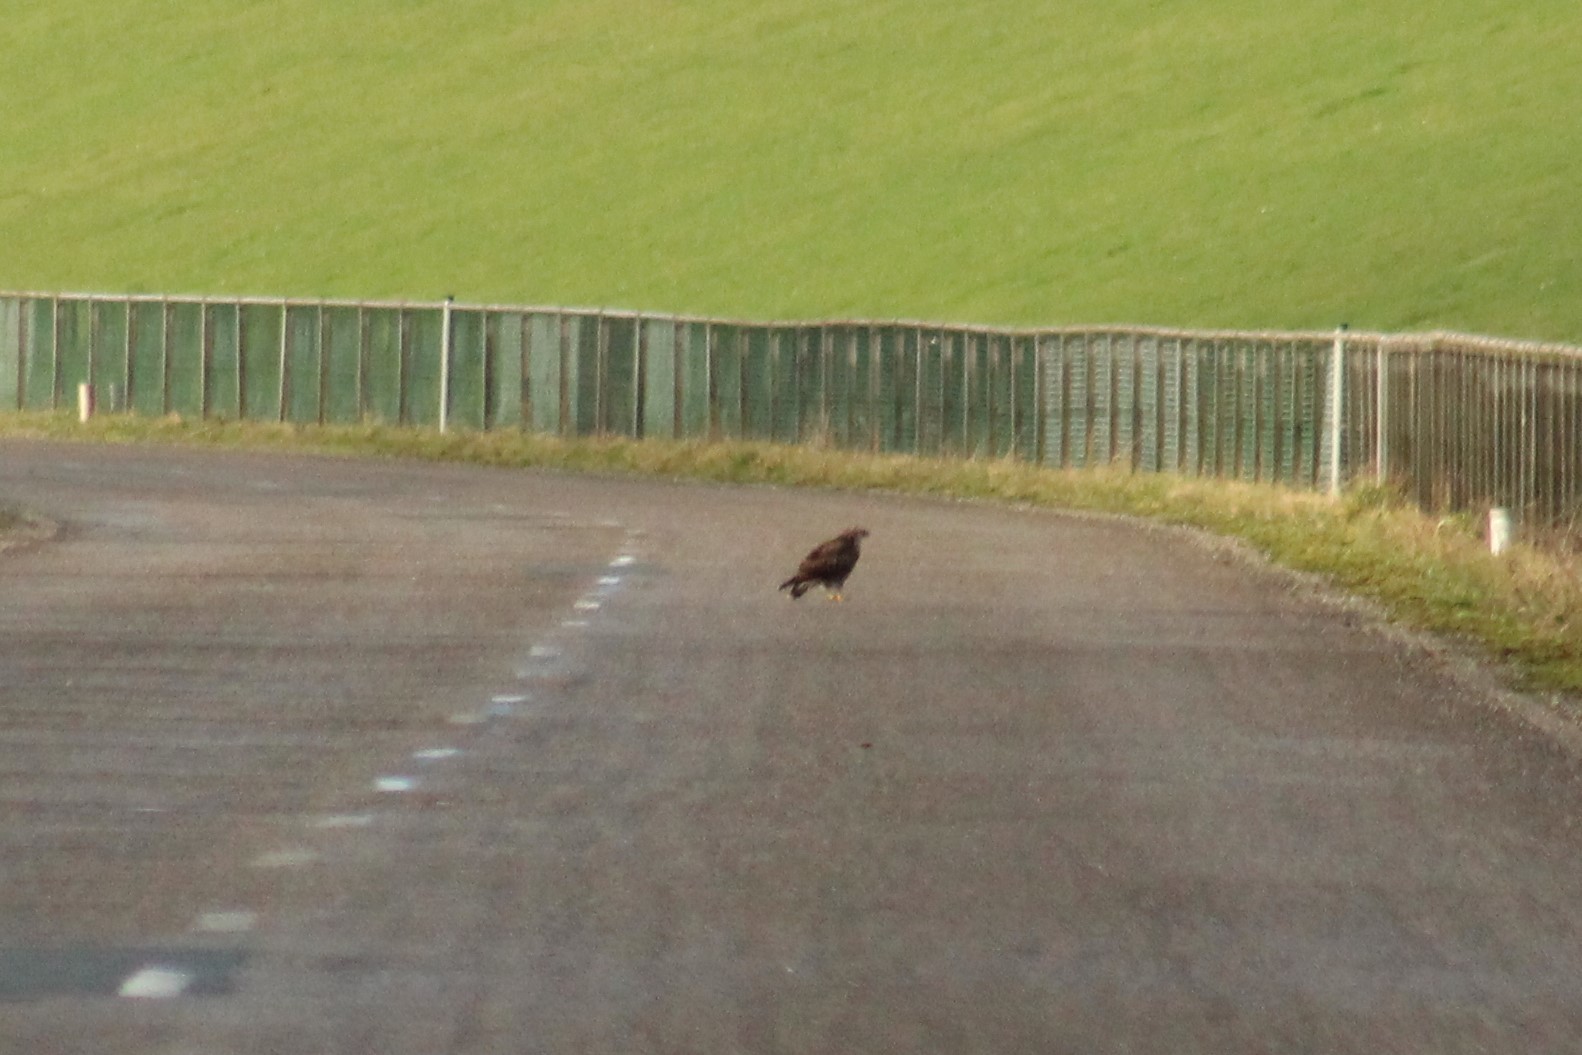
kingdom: Animalia
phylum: Chordata
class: Aves
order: Accipitriformes
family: Accipitridae
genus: Buteo
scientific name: Buteo buteo
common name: Common buzzard
